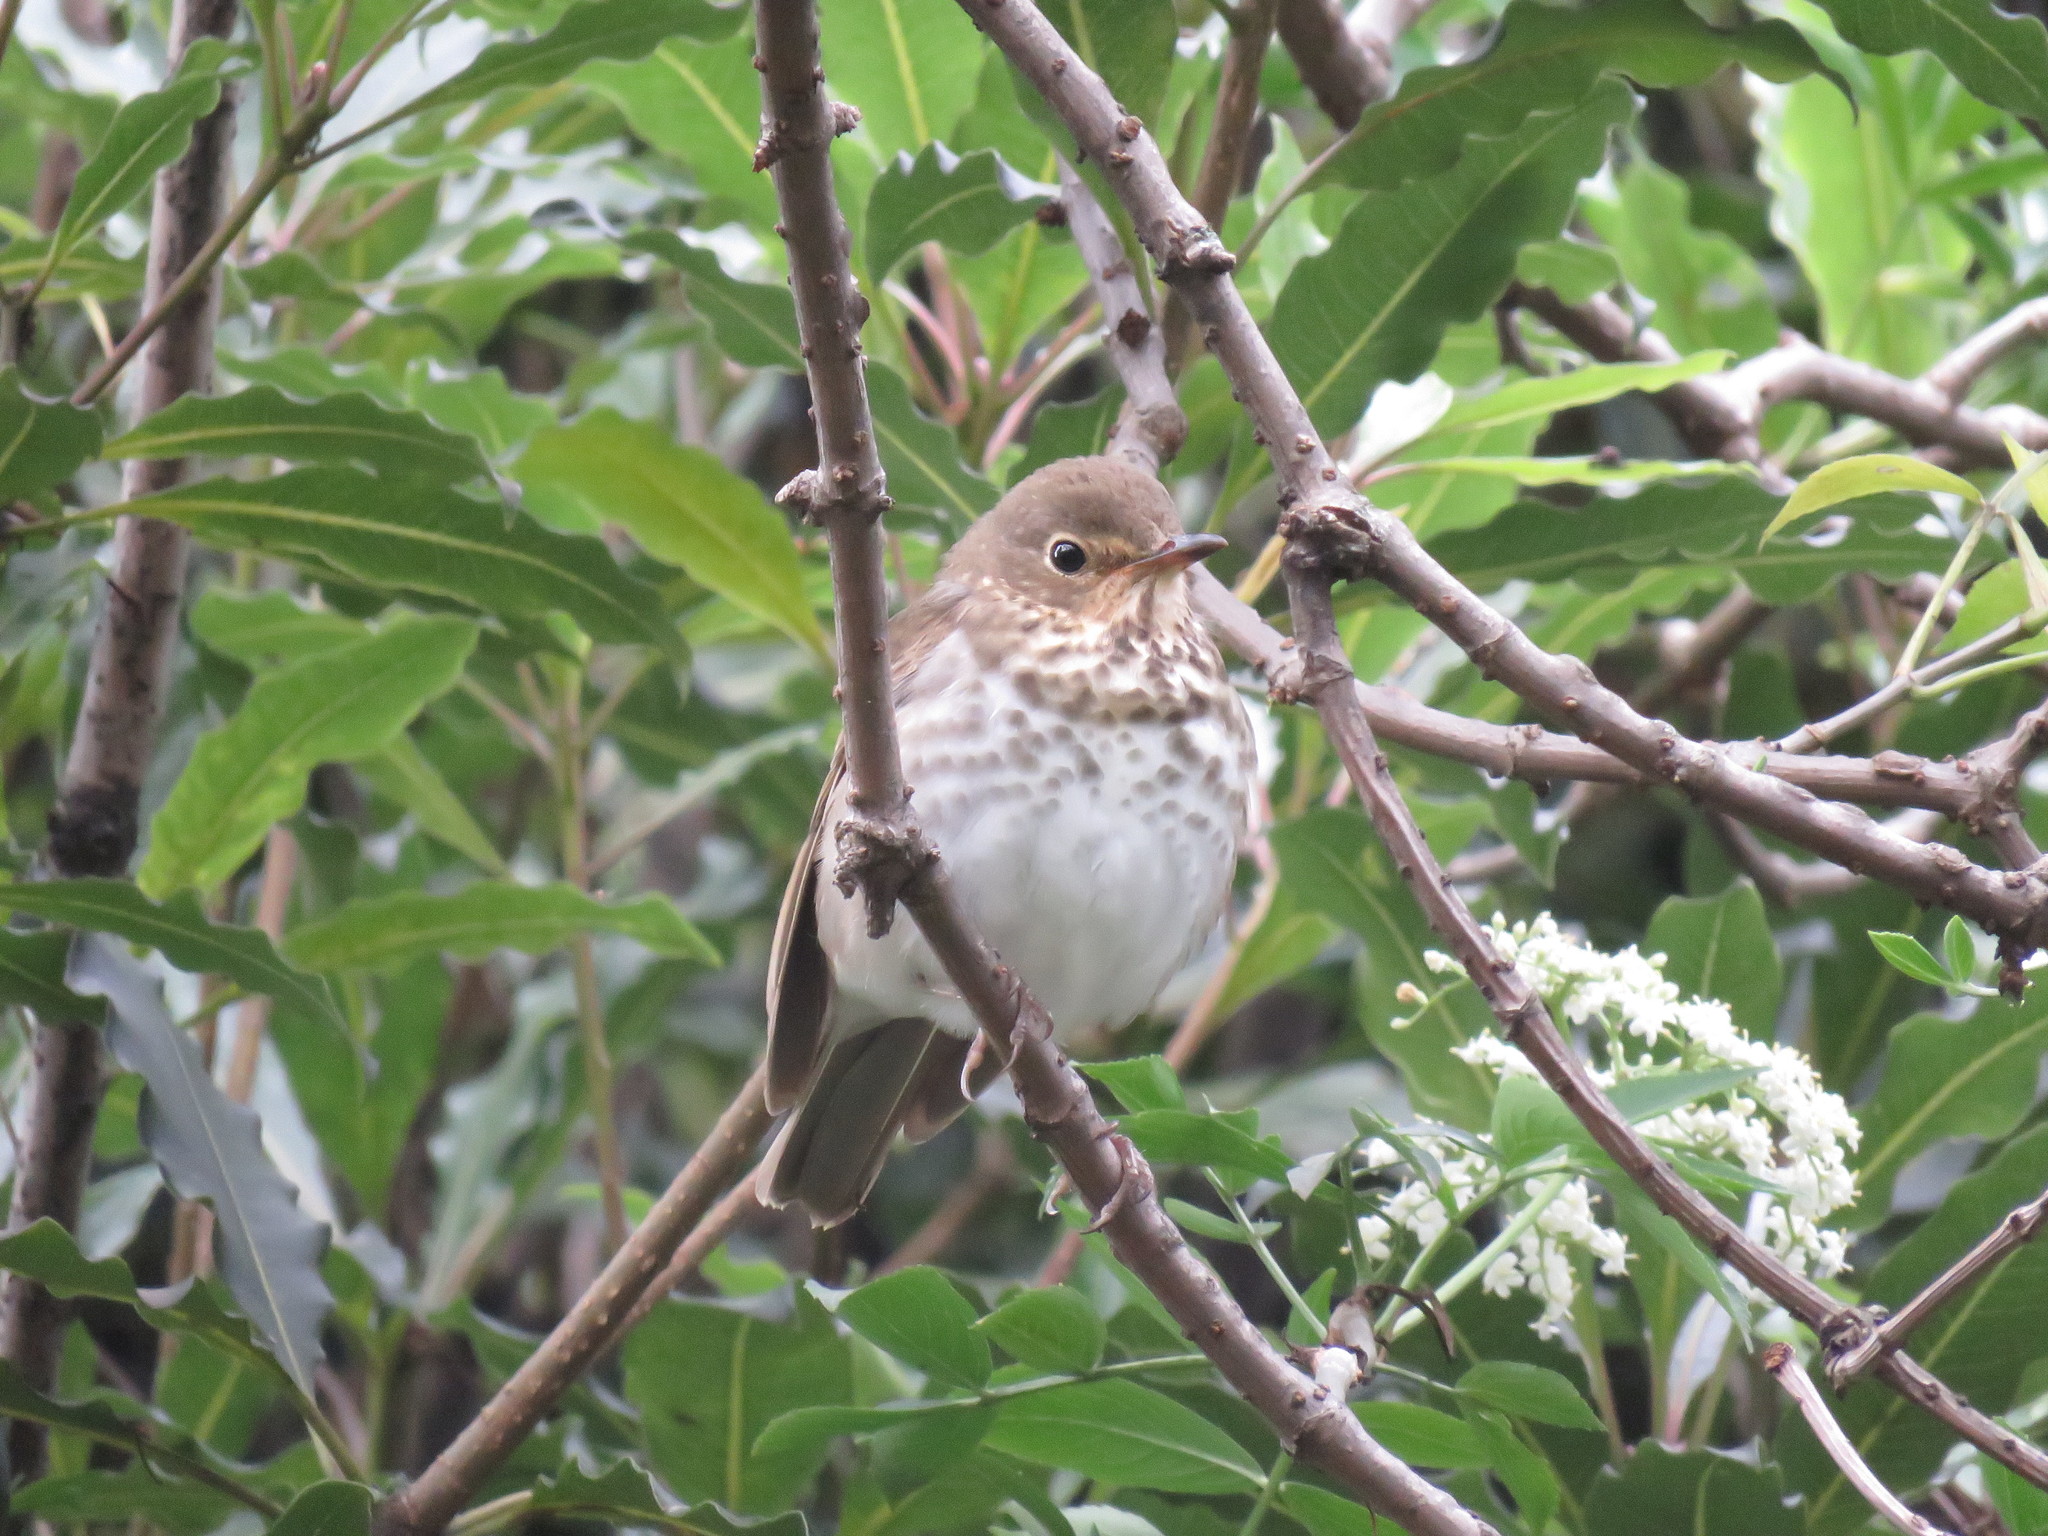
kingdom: Animalia
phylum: Chordata
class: Aves
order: Passeriformes
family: Turdidae
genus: Catharus
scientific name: Catharus ustulatus
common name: Swainson's thrush
